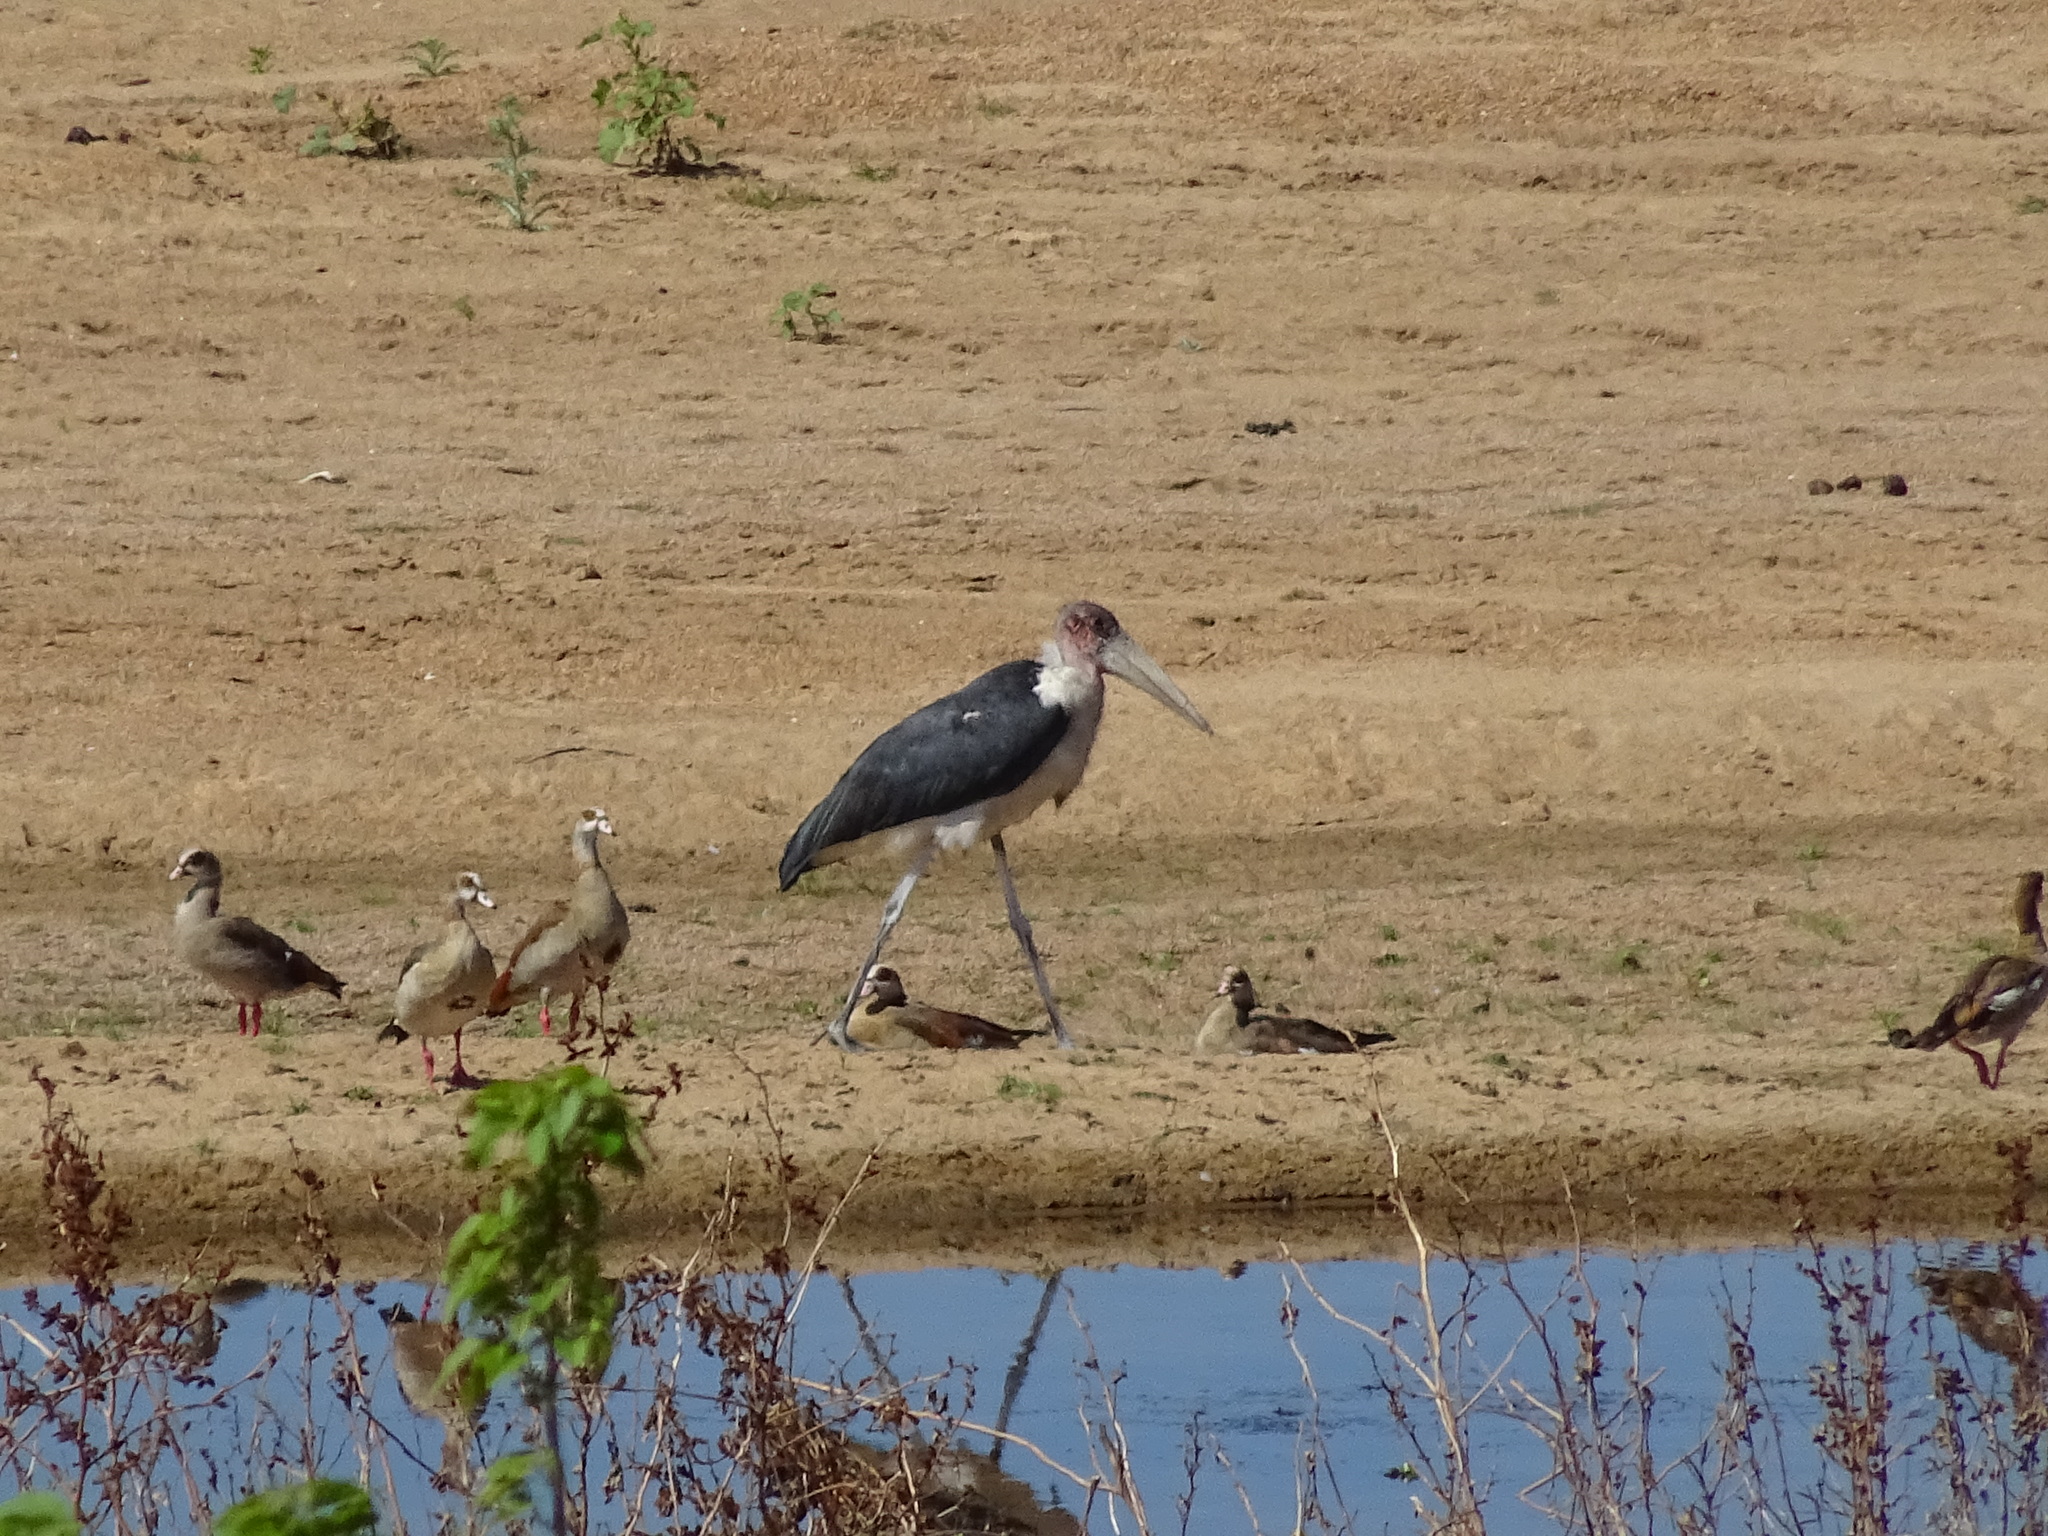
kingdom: Animalia
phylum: Chordata
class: Aves
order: Ciconiiformes
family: Ciconiidae
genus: Leptoptilos
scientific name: Leptoptilos crumenifer
